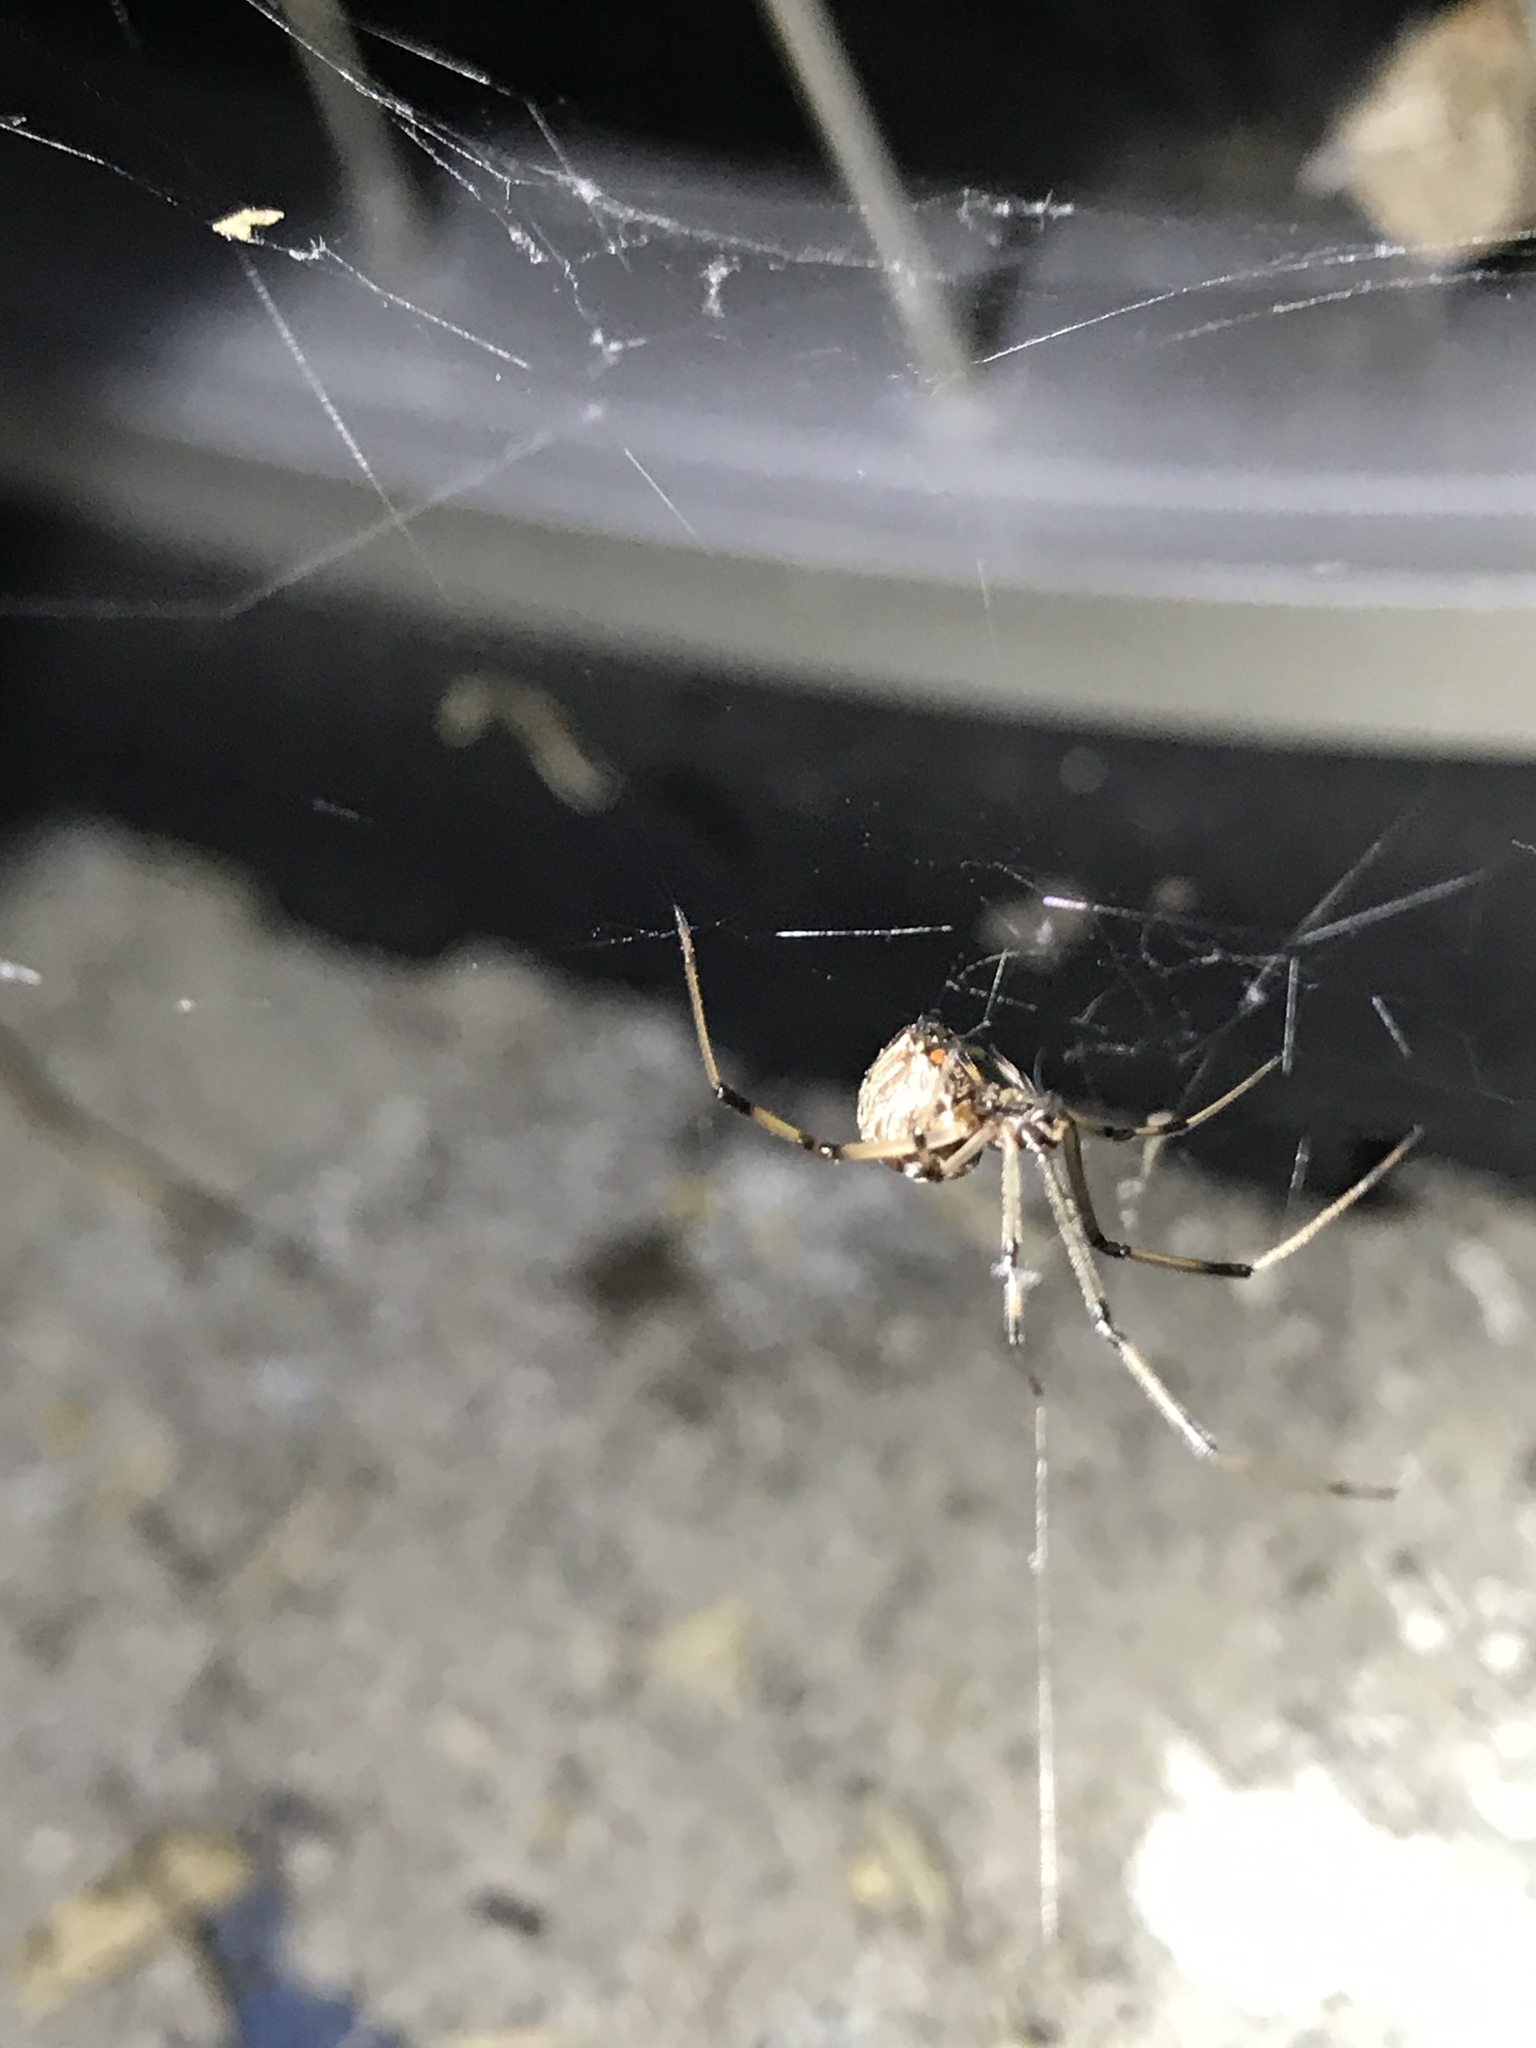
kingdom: Animalia
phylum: Arthropoda
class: Arachnida
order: Araneae
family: Theridiidae
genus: Latrodectus
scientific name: Latrodectus geometricus
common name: Brown widow spider
